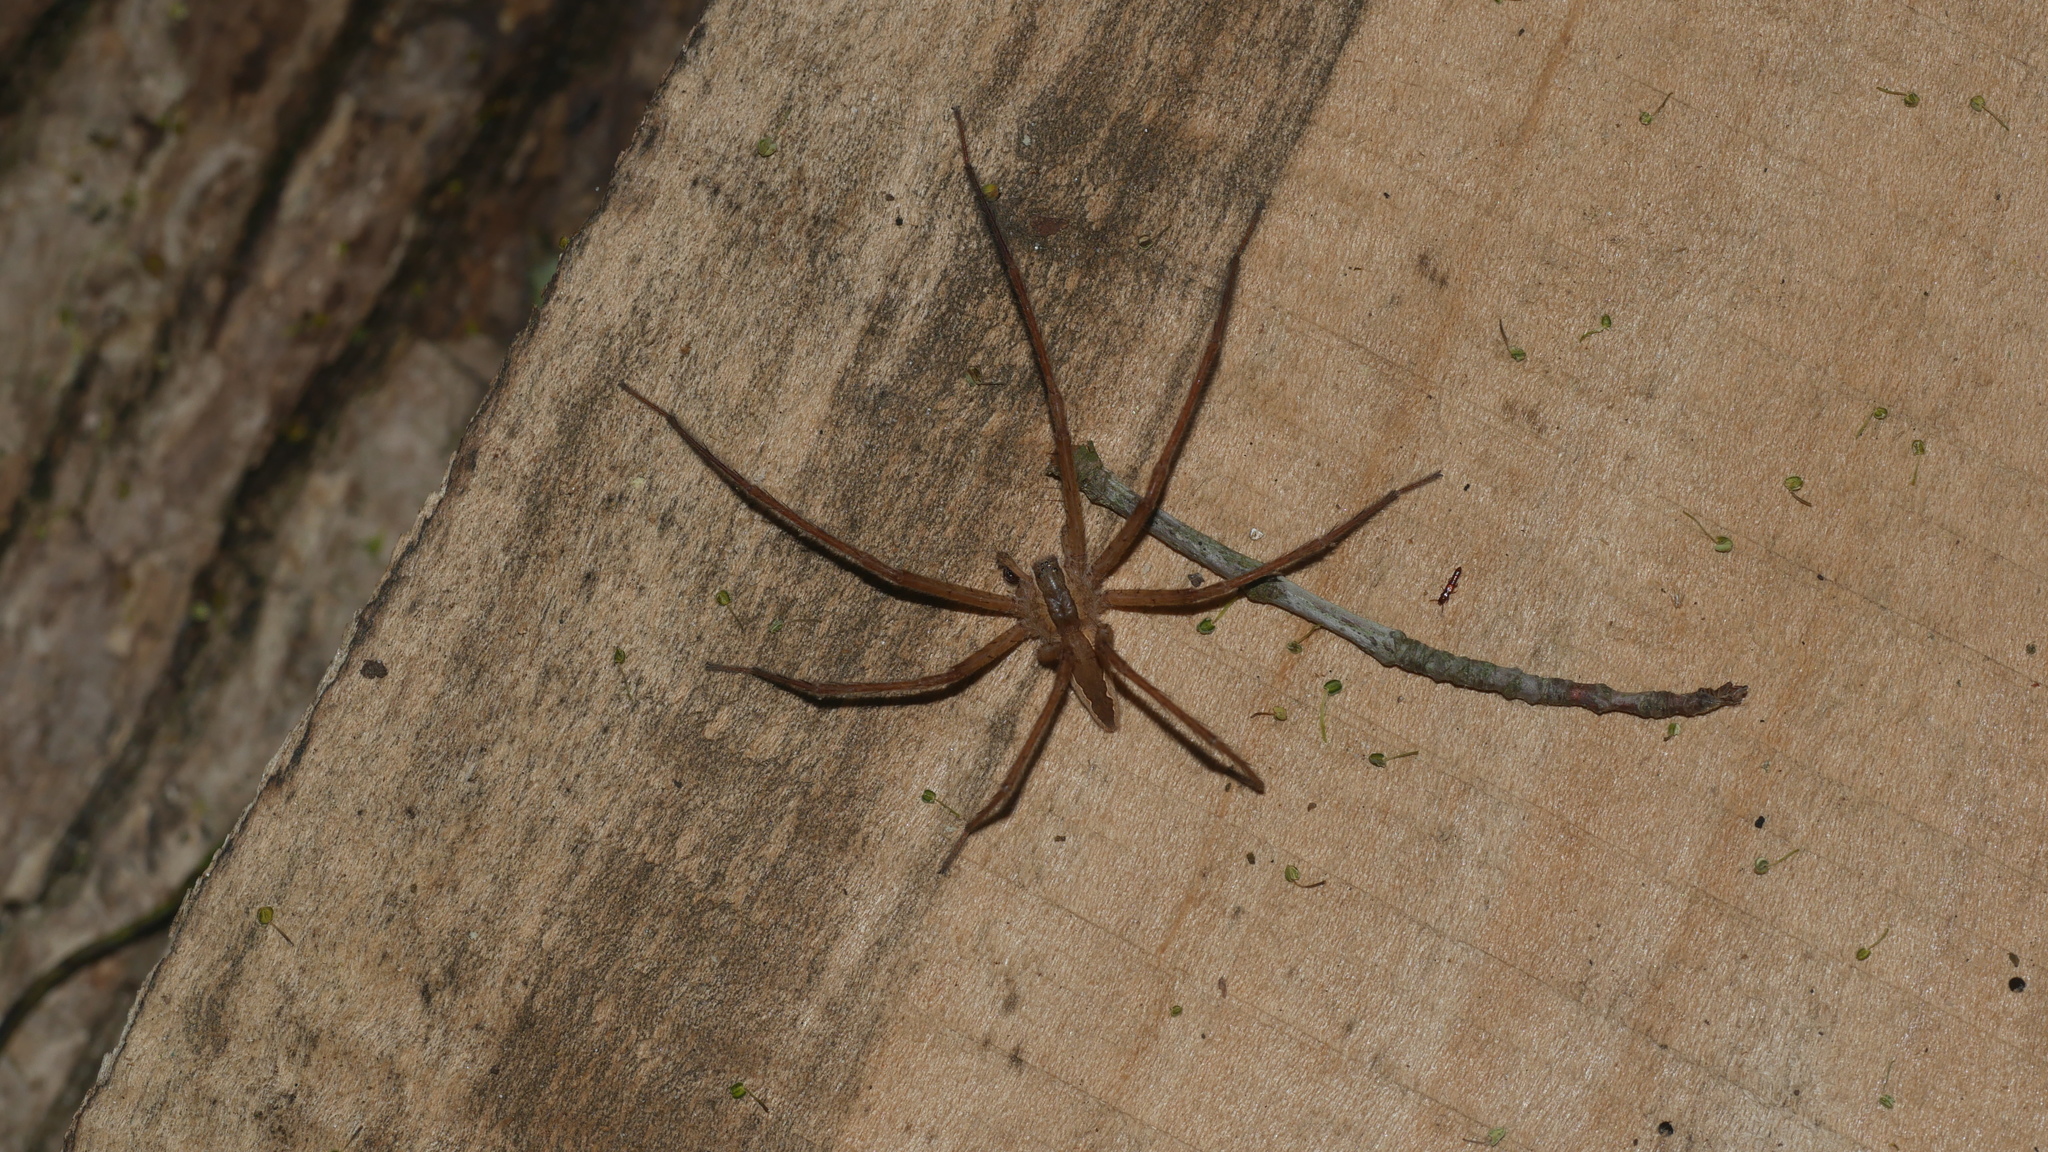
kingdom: Animalia
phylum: Arthropoda
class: Arachnida
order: Araneae
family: Pisauridae
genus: Pisaurina
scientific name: Pisaurina mira
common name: American nursery web spider
